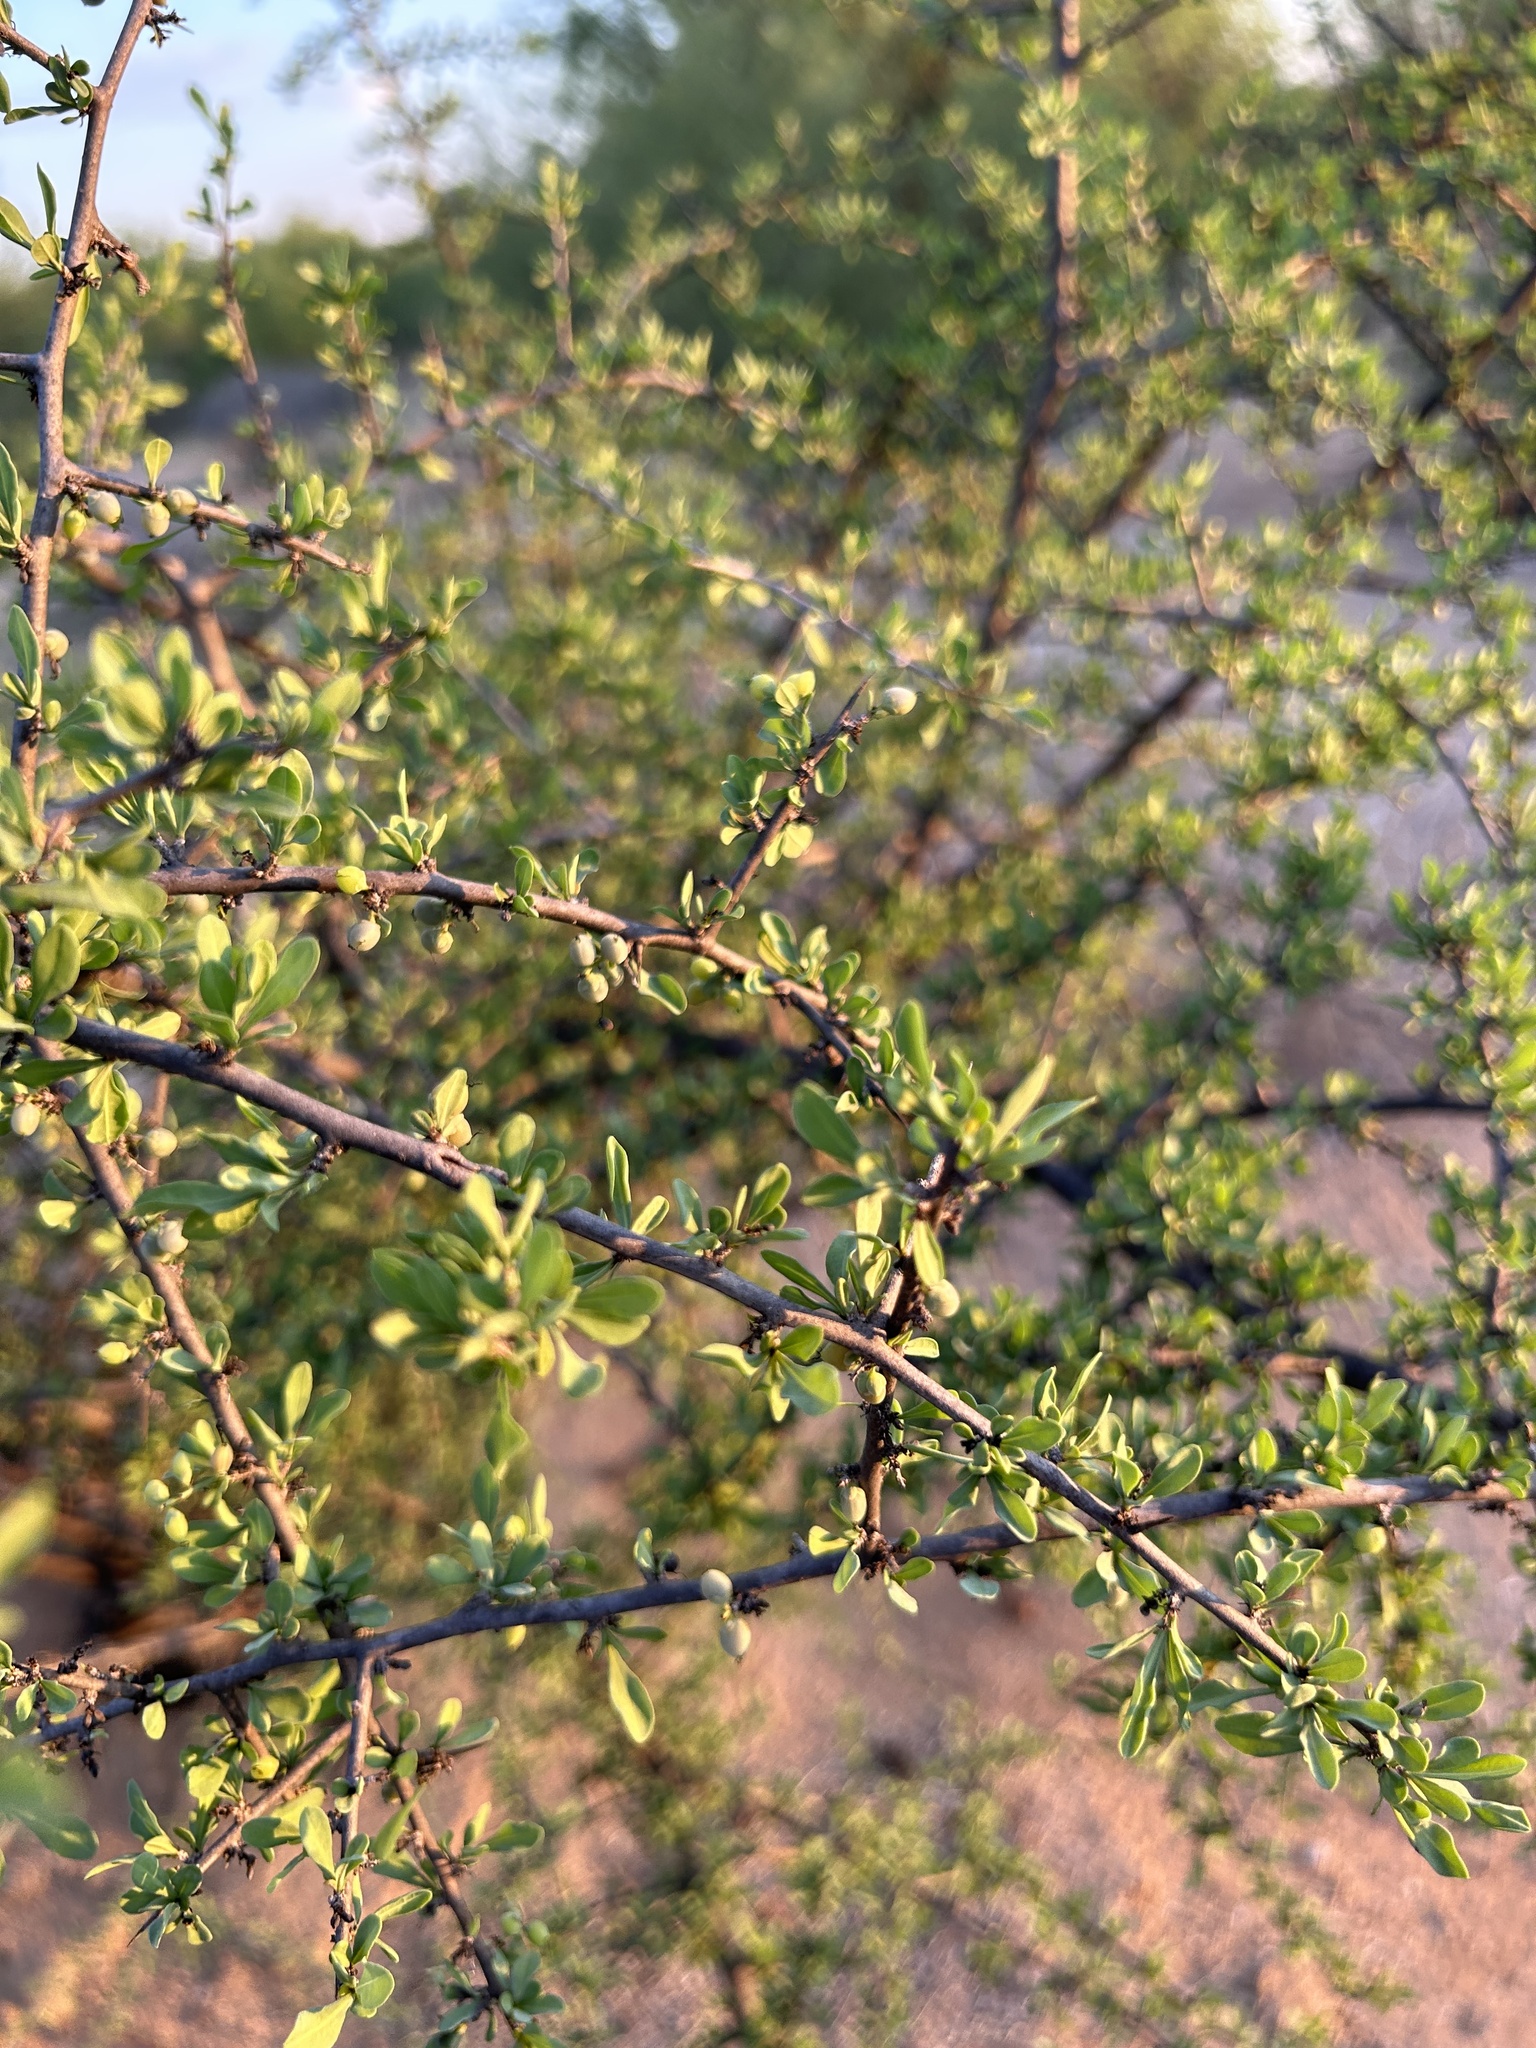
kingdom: Plantae
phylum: Tracheophyta
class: Magnoliopsida
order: Caryophyllales
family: Achatocarpaceae
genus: Phaulothamnus
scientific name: Phaulothamnus spinescens
